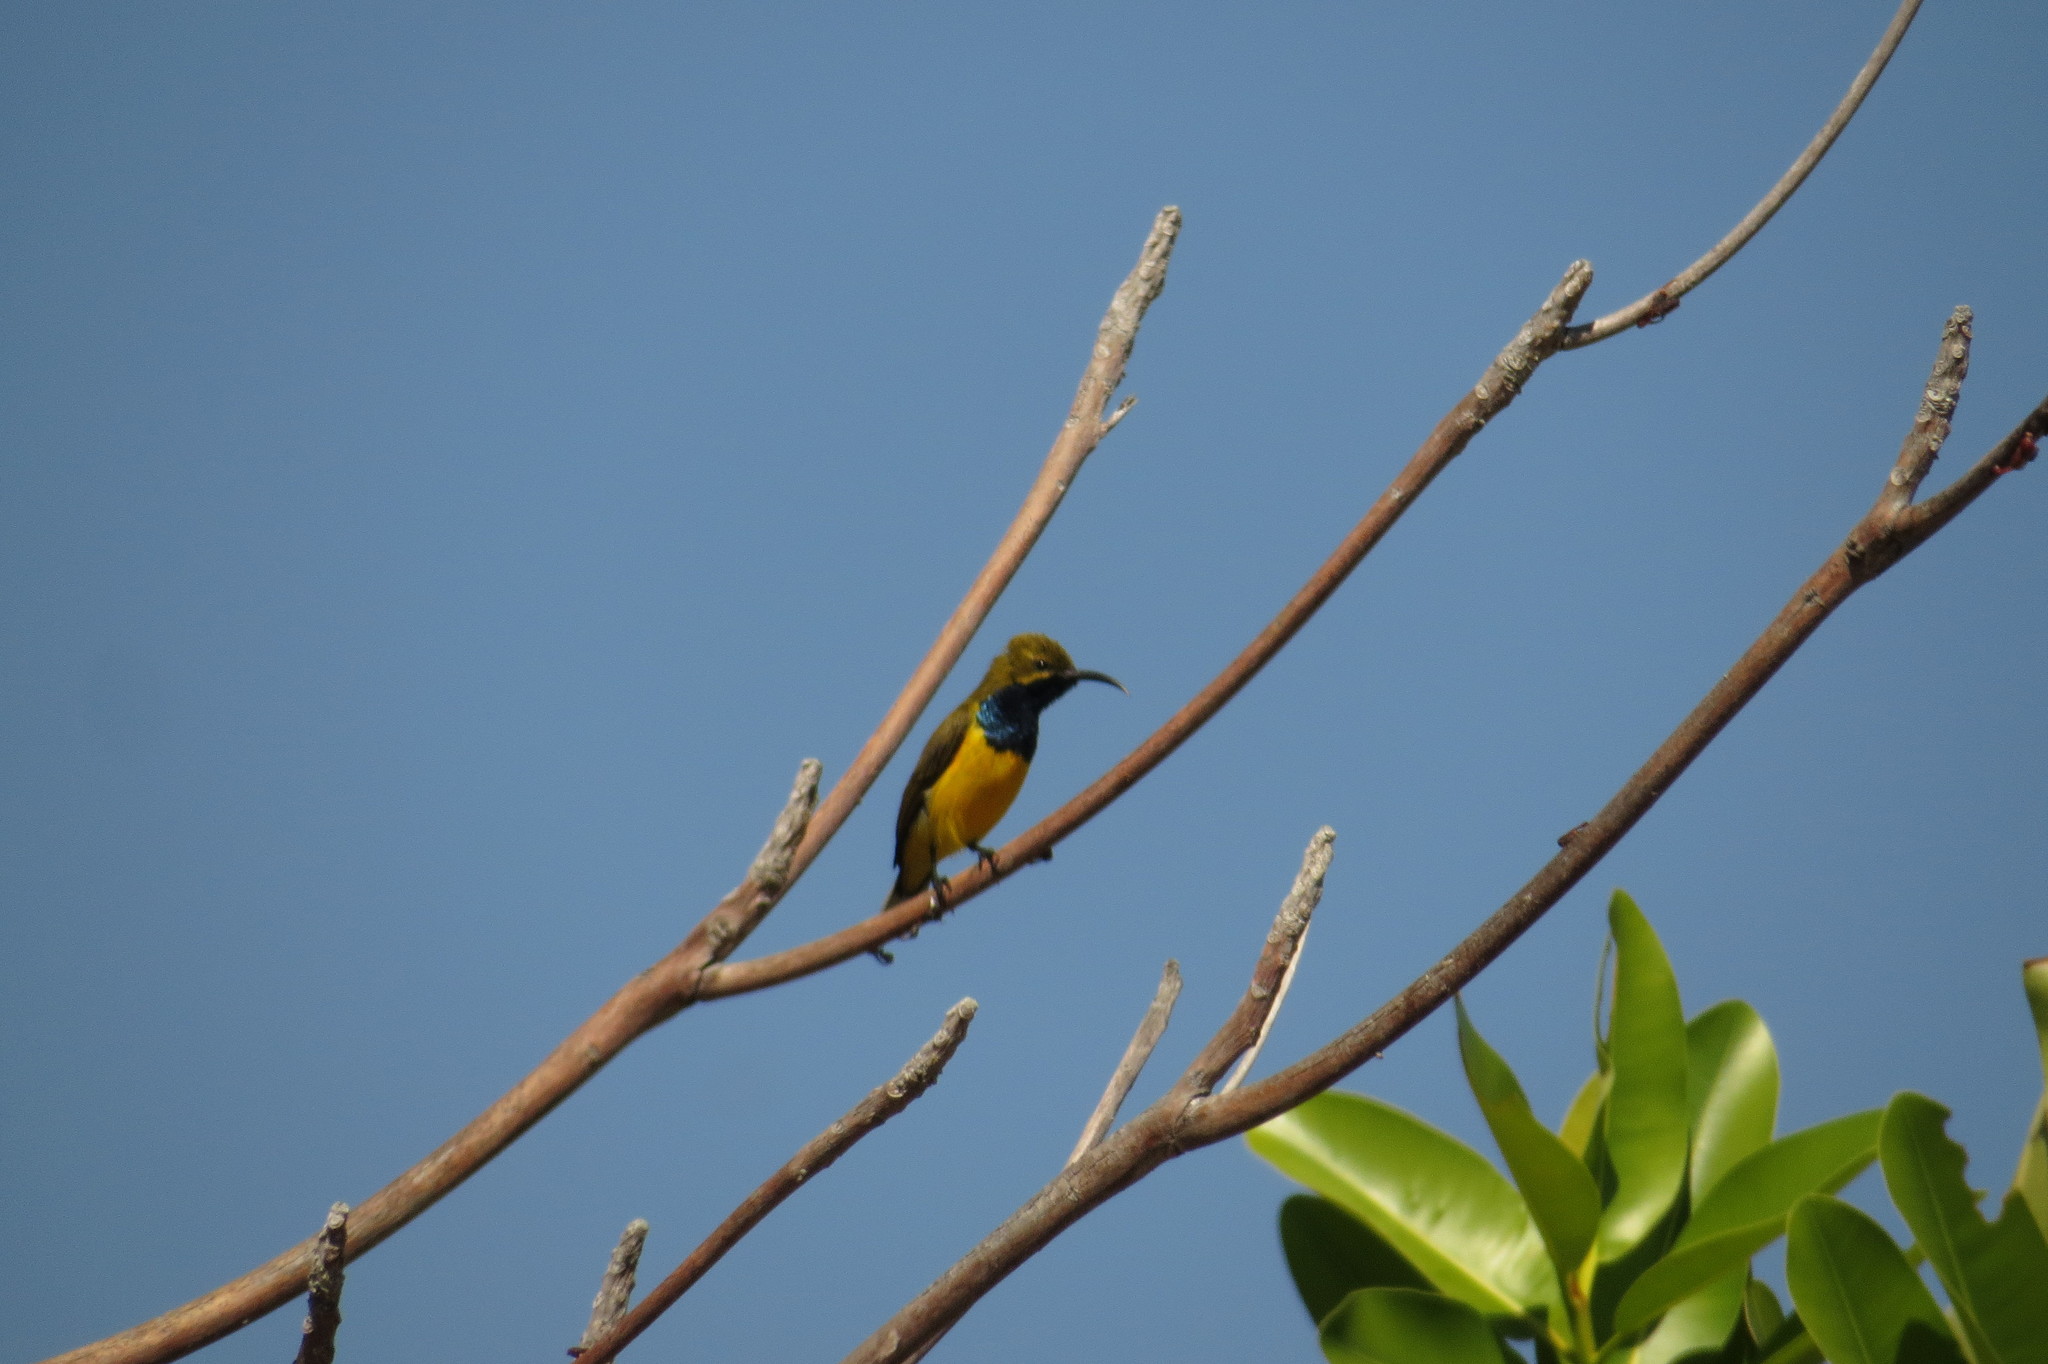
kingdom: Animalia
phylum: Chordata
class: Aves
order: Passeriformes
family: Nectariniidae
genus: Cinnyris
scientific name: Cinnyris
